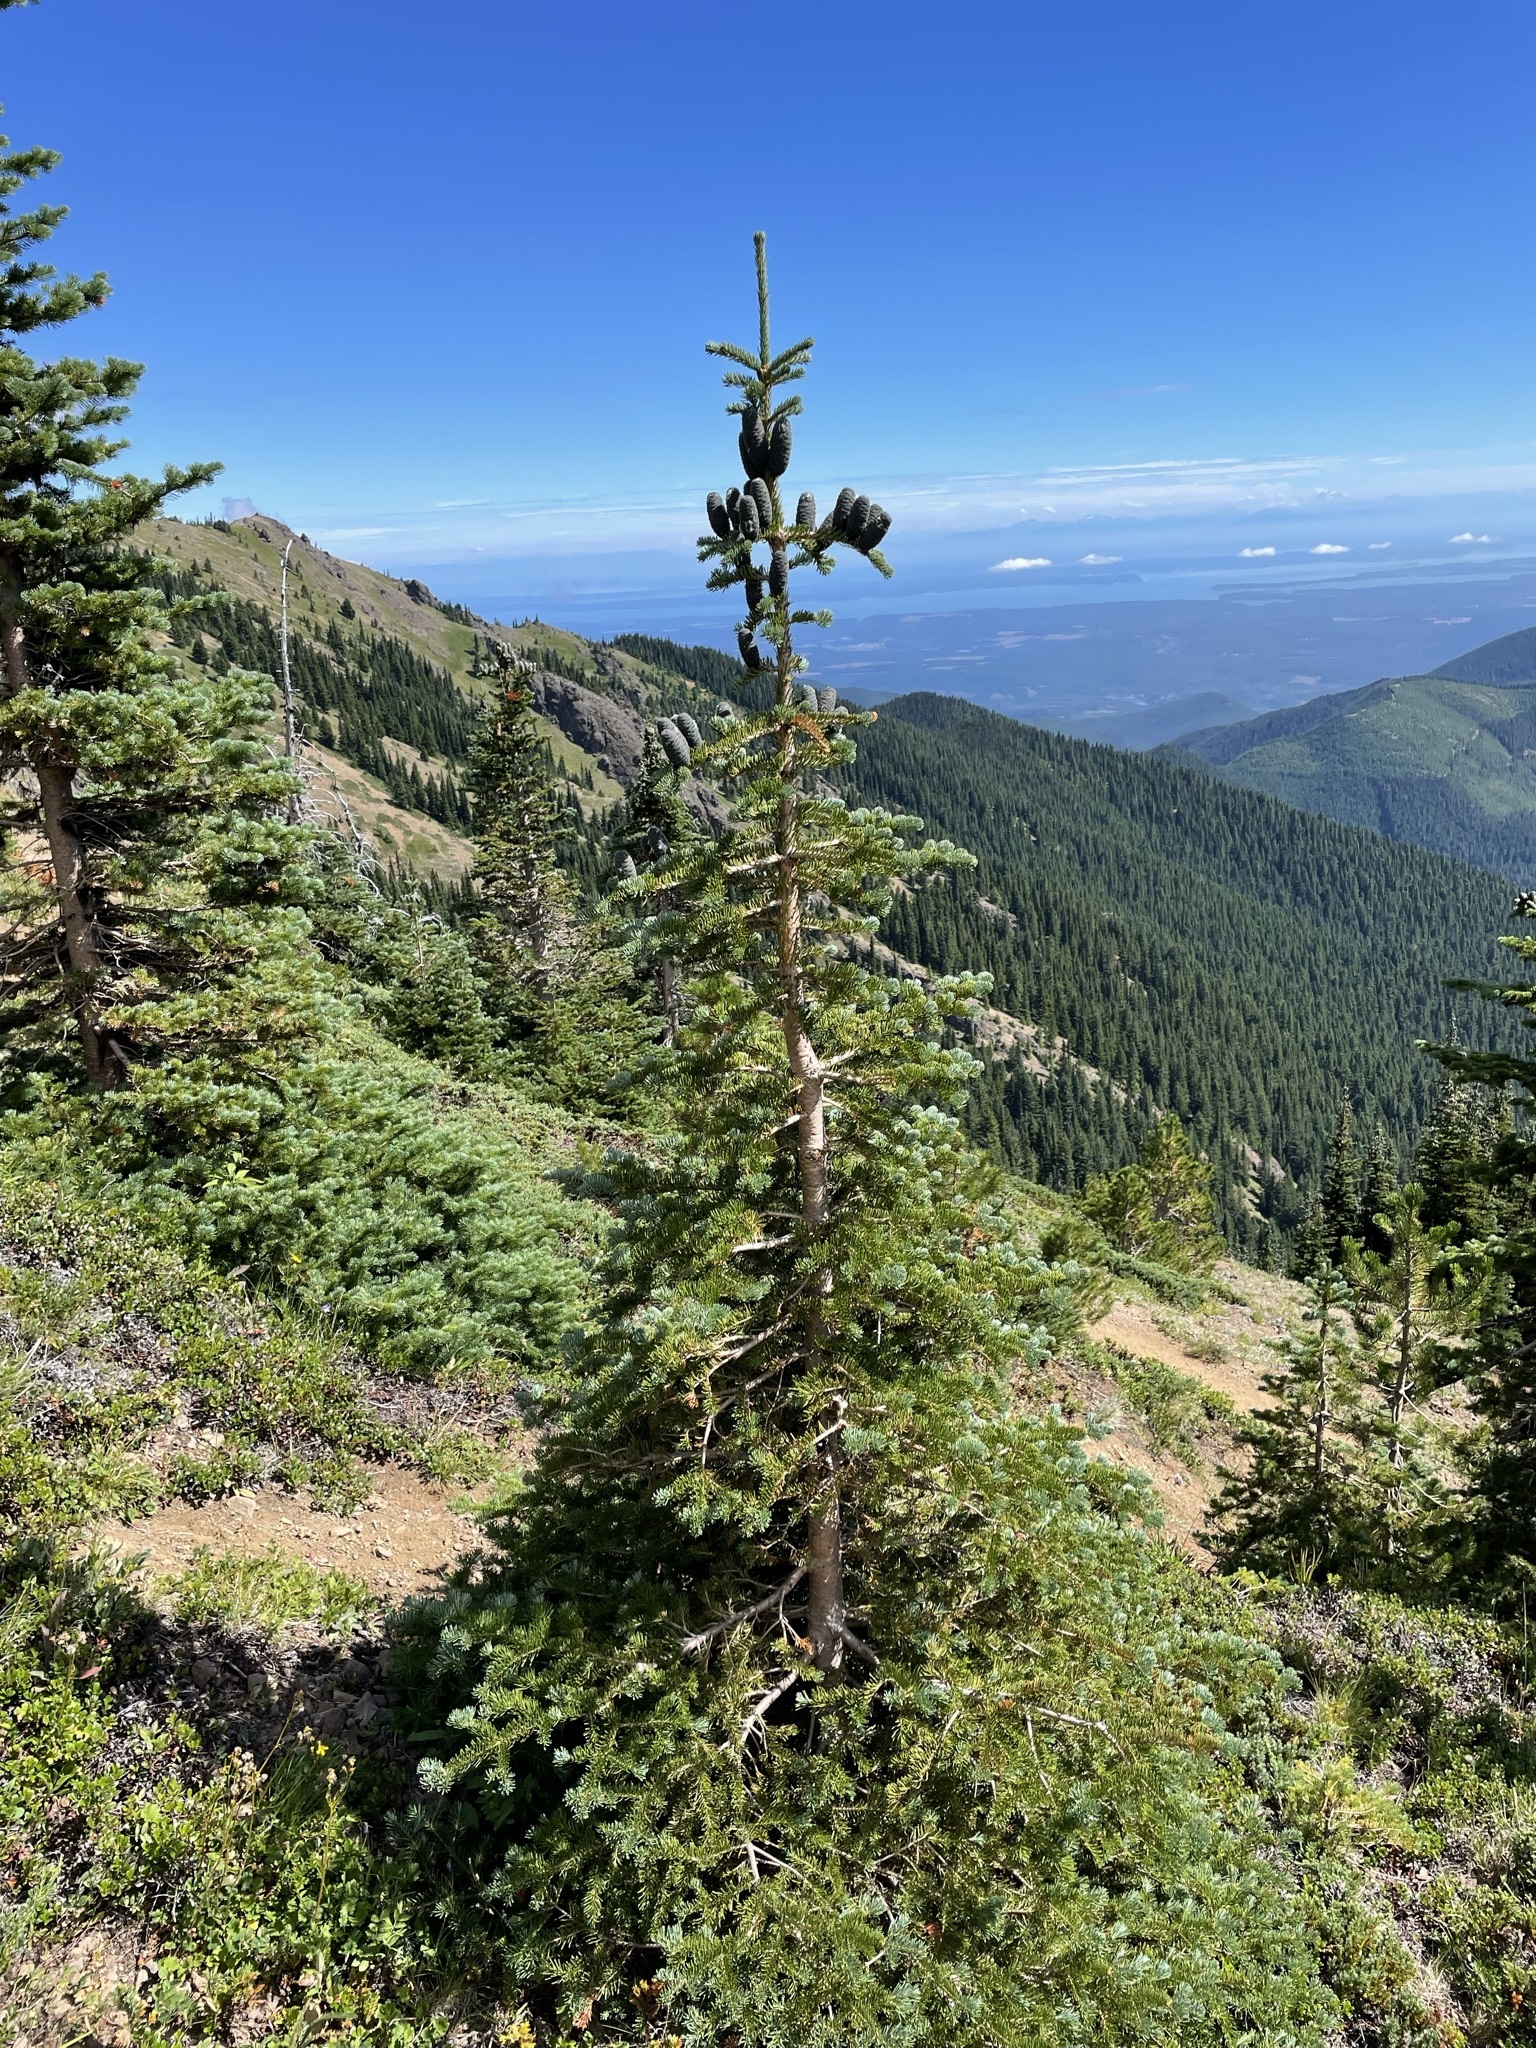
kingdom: Plantae
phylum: Tracheophyta
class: Pinopsida
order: Pinales
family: Pinaceae
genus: Abies
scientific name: Abies lasiocarpa
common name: Subalpine fir
